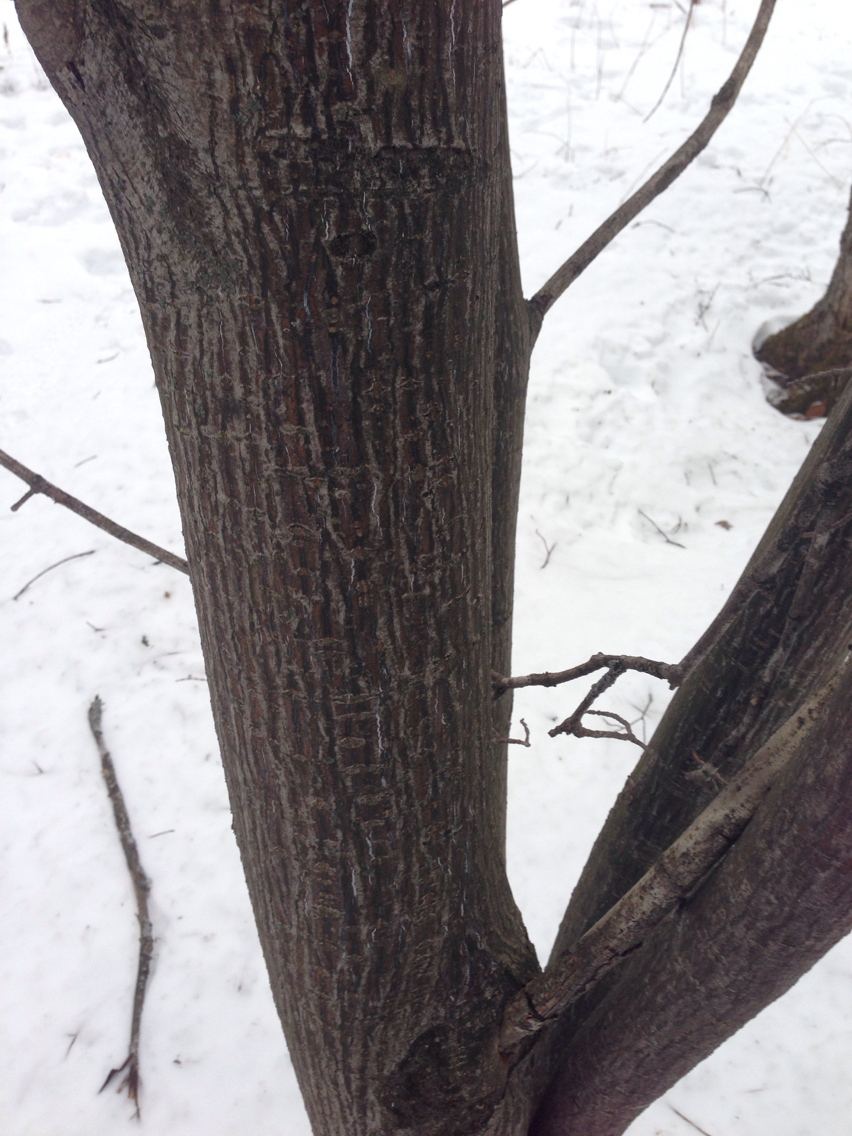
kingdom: Plantae
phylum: Tracheophyta
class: Magnoliopsida
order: Sapindales
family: Sapindaceae
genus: Acer
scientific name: Acer pensylvanicum
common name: Moosewood
